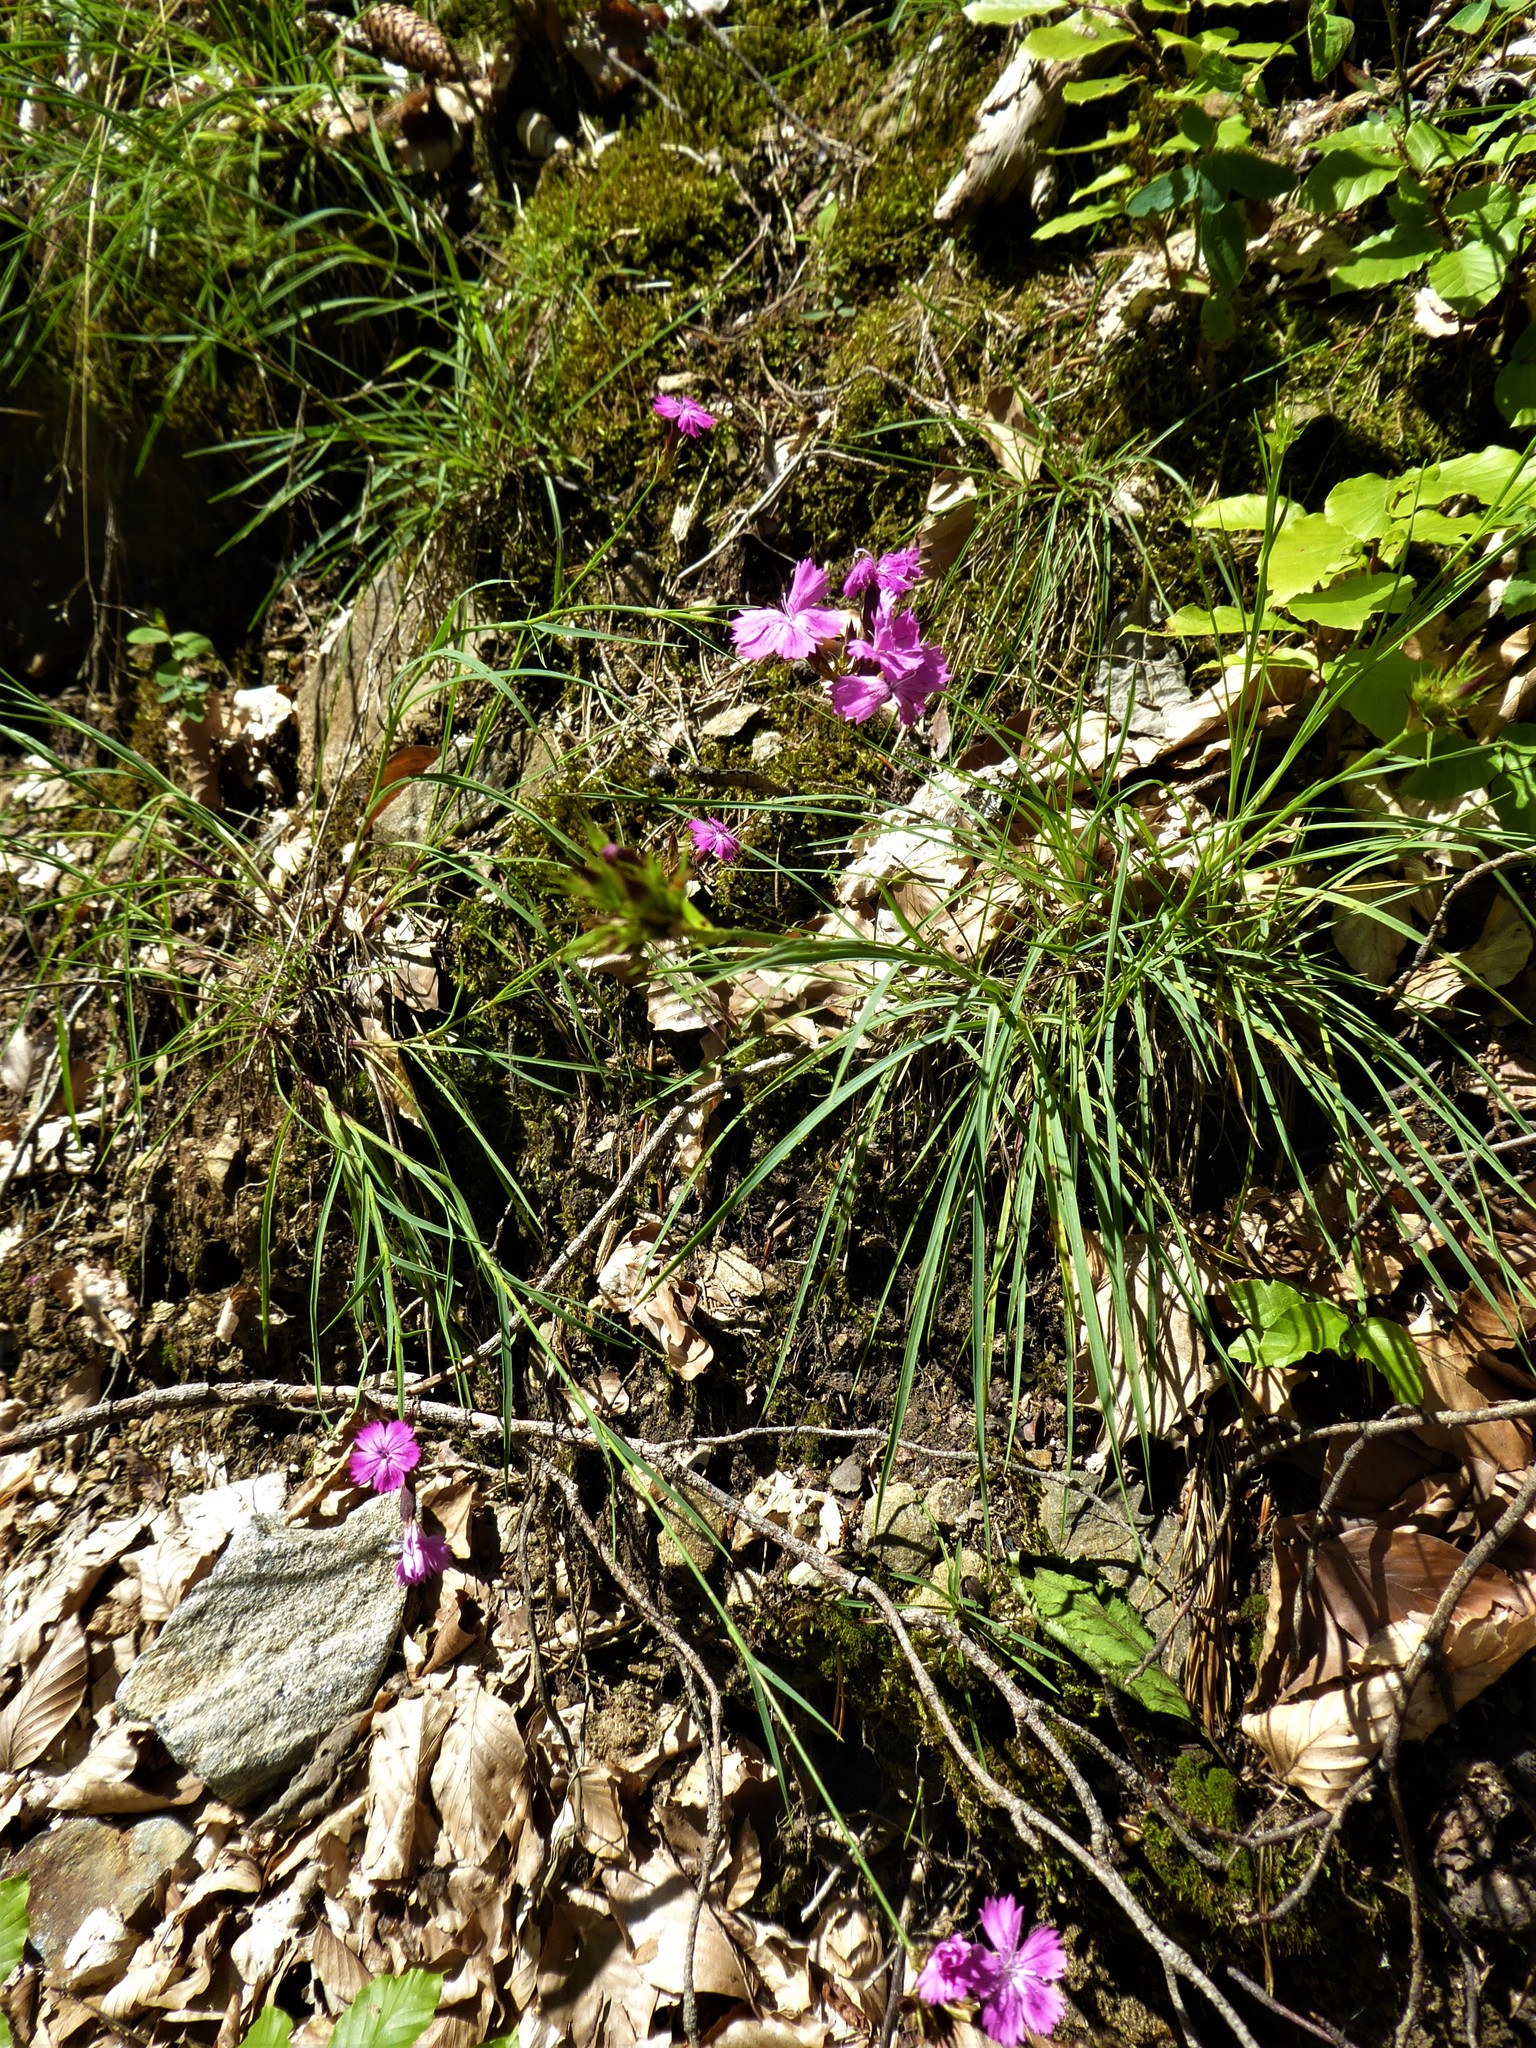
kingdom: Plantae
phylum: Tracheophyta
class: Magnoliopsida
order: Caryophyllales
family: Caryophyllaceae
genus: Dianthus
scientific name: Dianthus carthusianorum
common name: Carthusian pink
